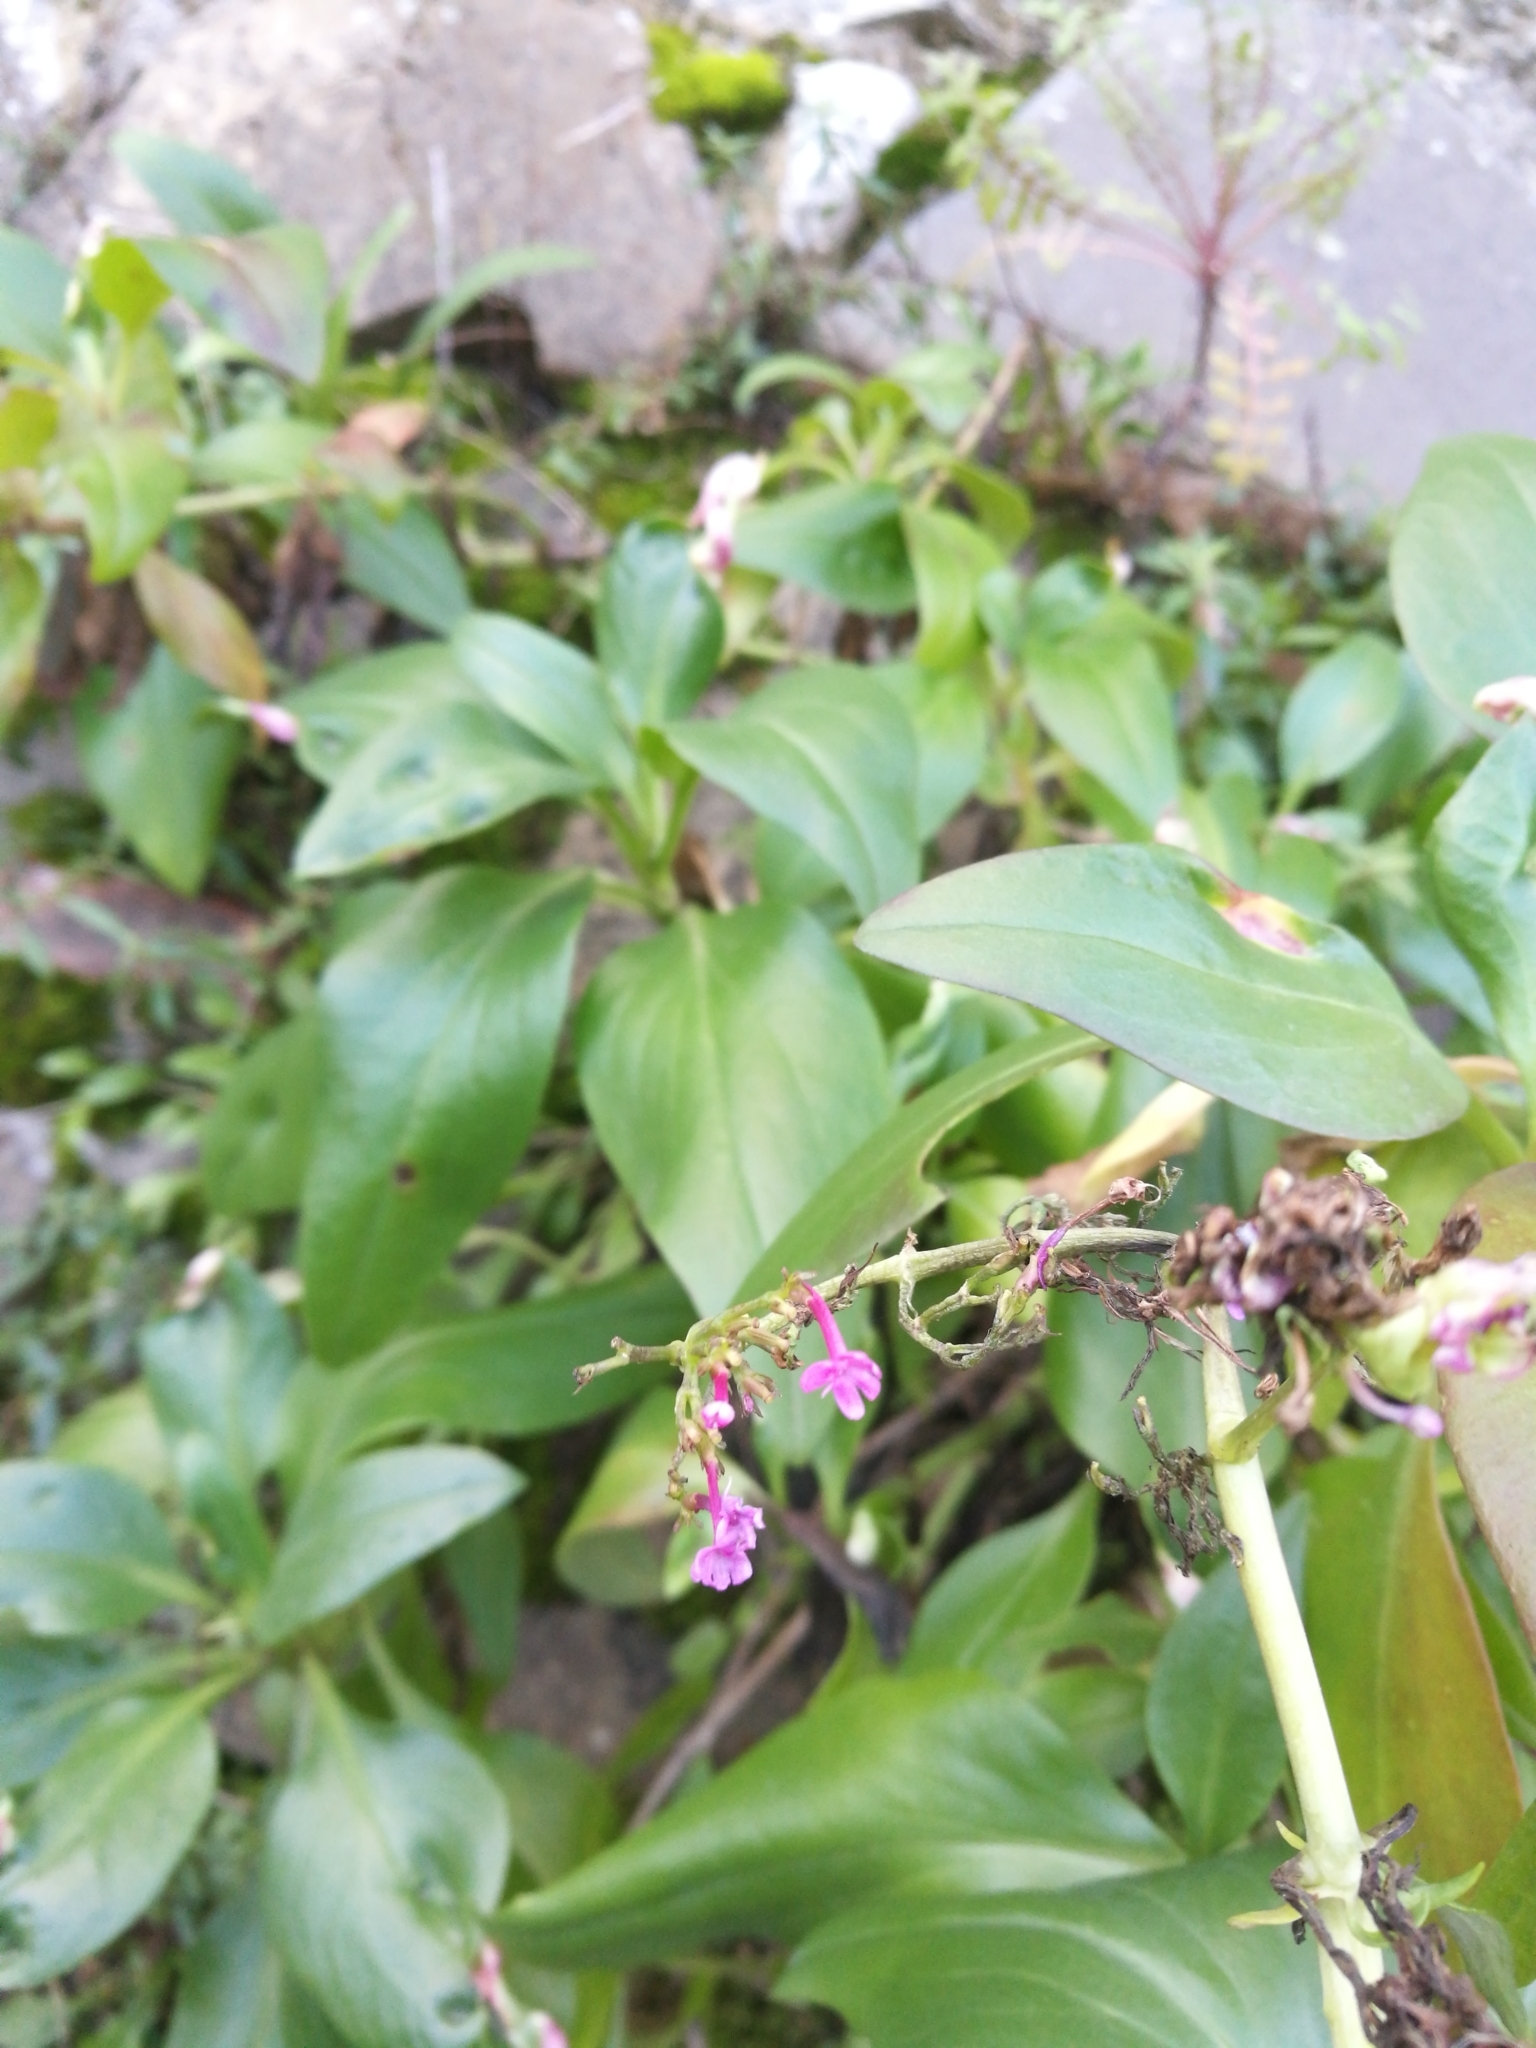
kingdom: Plantae
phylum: Tracheophyta
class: Magnoliopsida
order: Dipsacales
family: Caprifoliaceae
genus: Centranthus
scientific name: Centranthus ruber
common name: Red valerian
